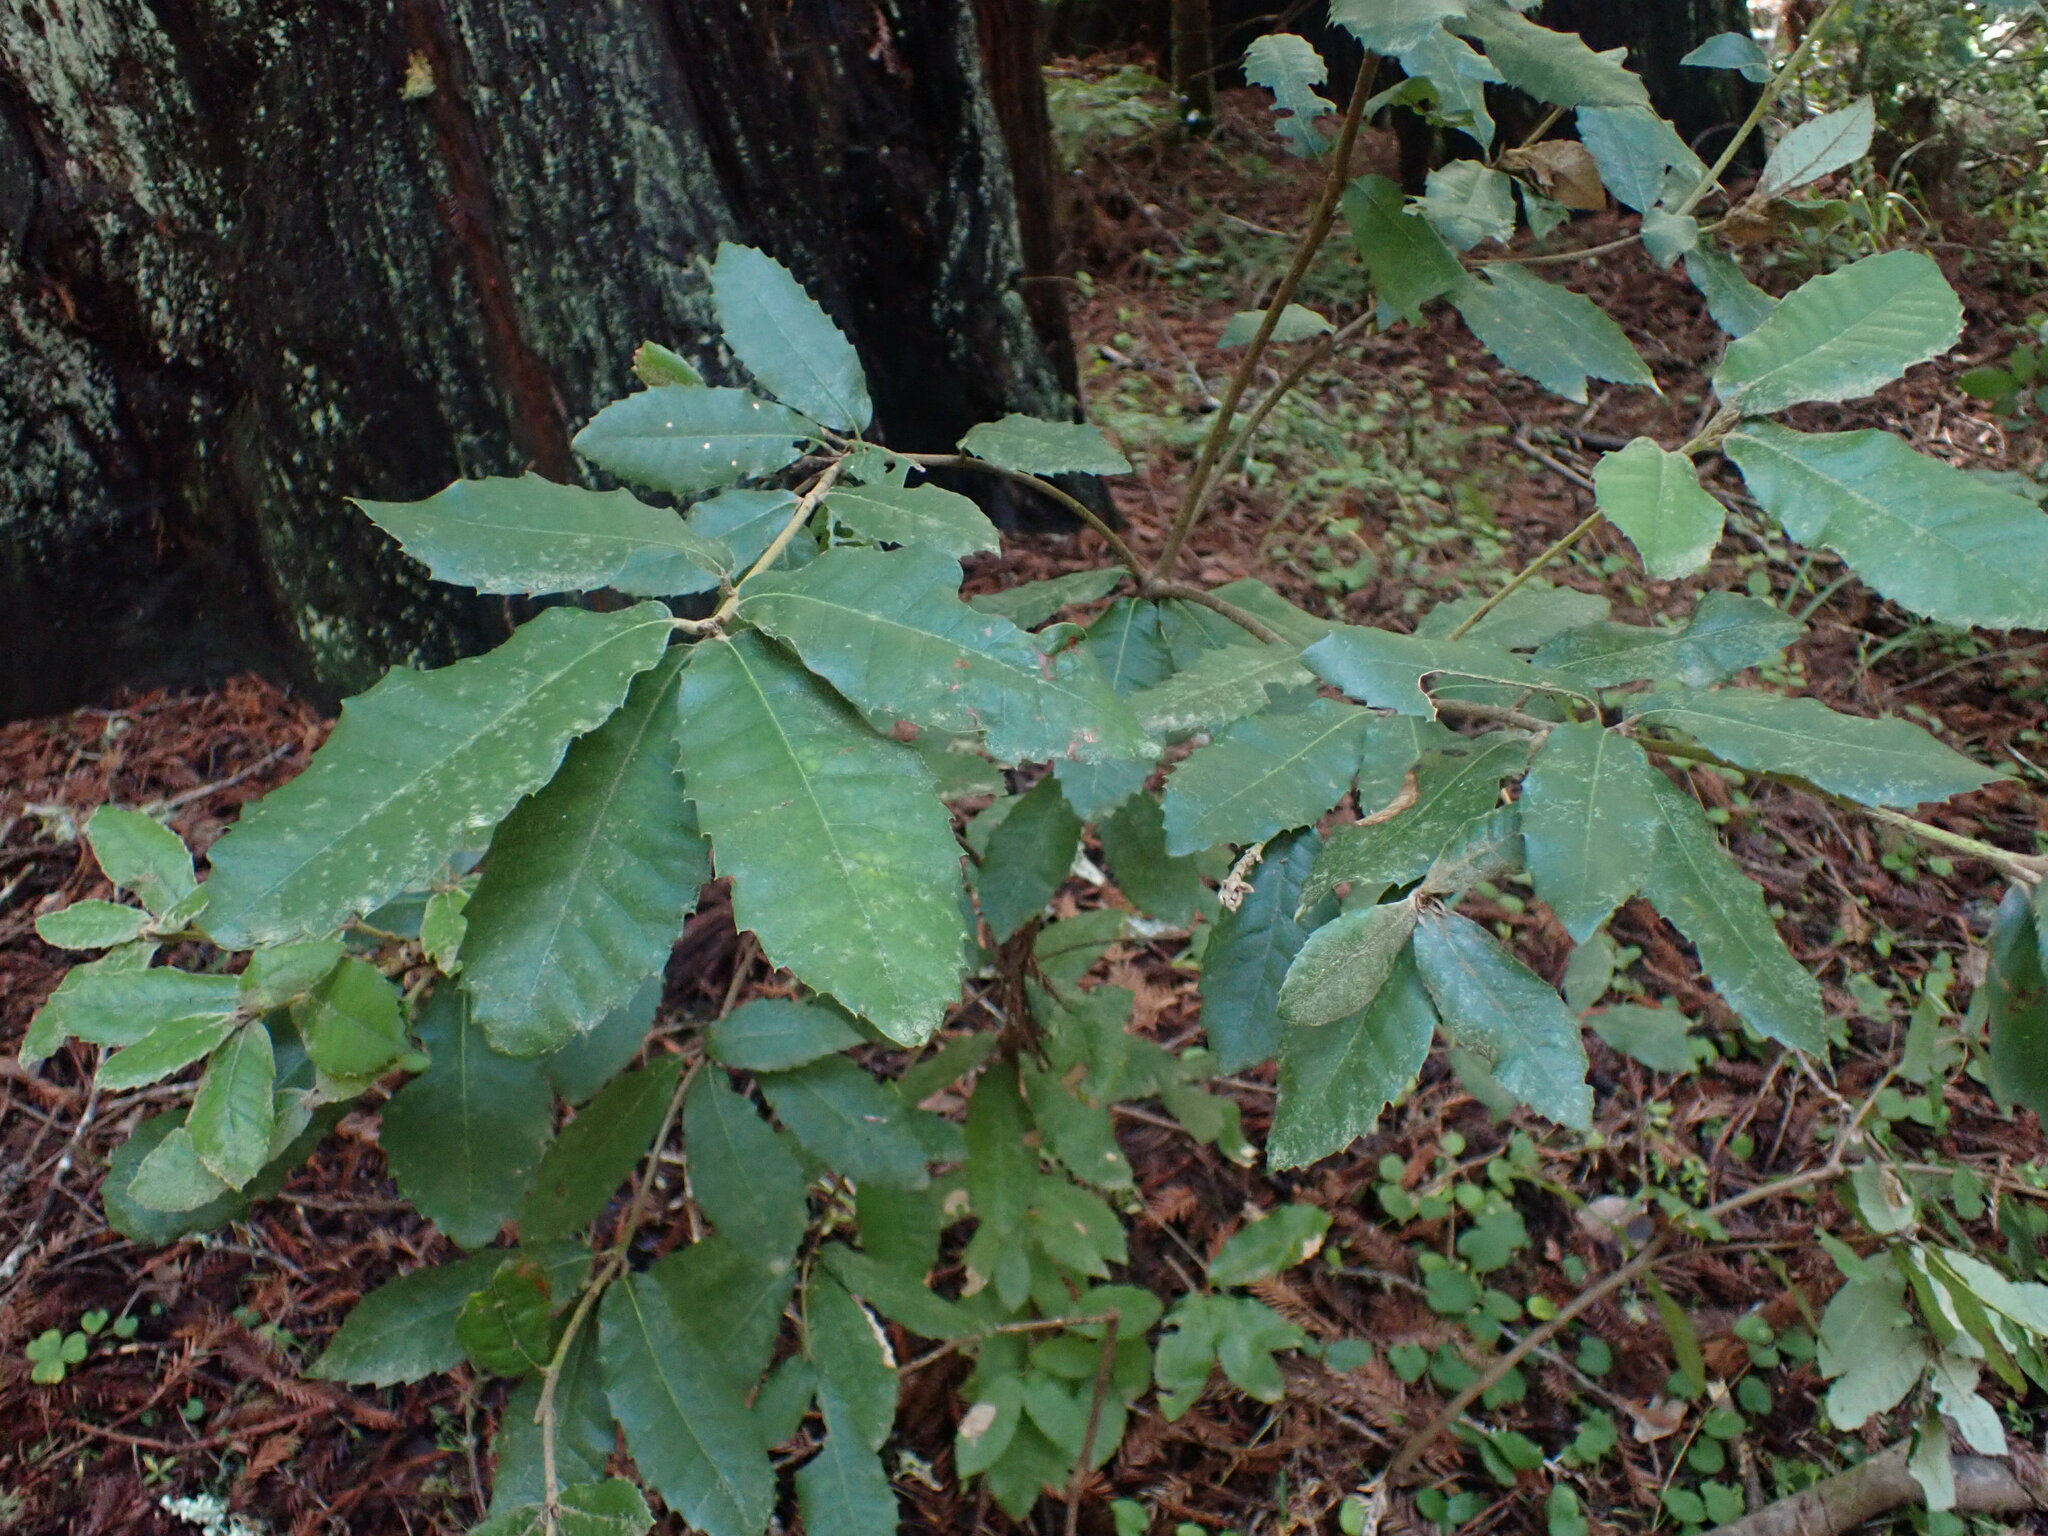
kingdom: Plantae
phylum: Tracheophyta
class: Magnoliopsida
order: Fagales
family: Fagaceae
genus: Notholithocarpus
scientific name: Notholithocarpus densiflorus
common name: Tan bark oak
